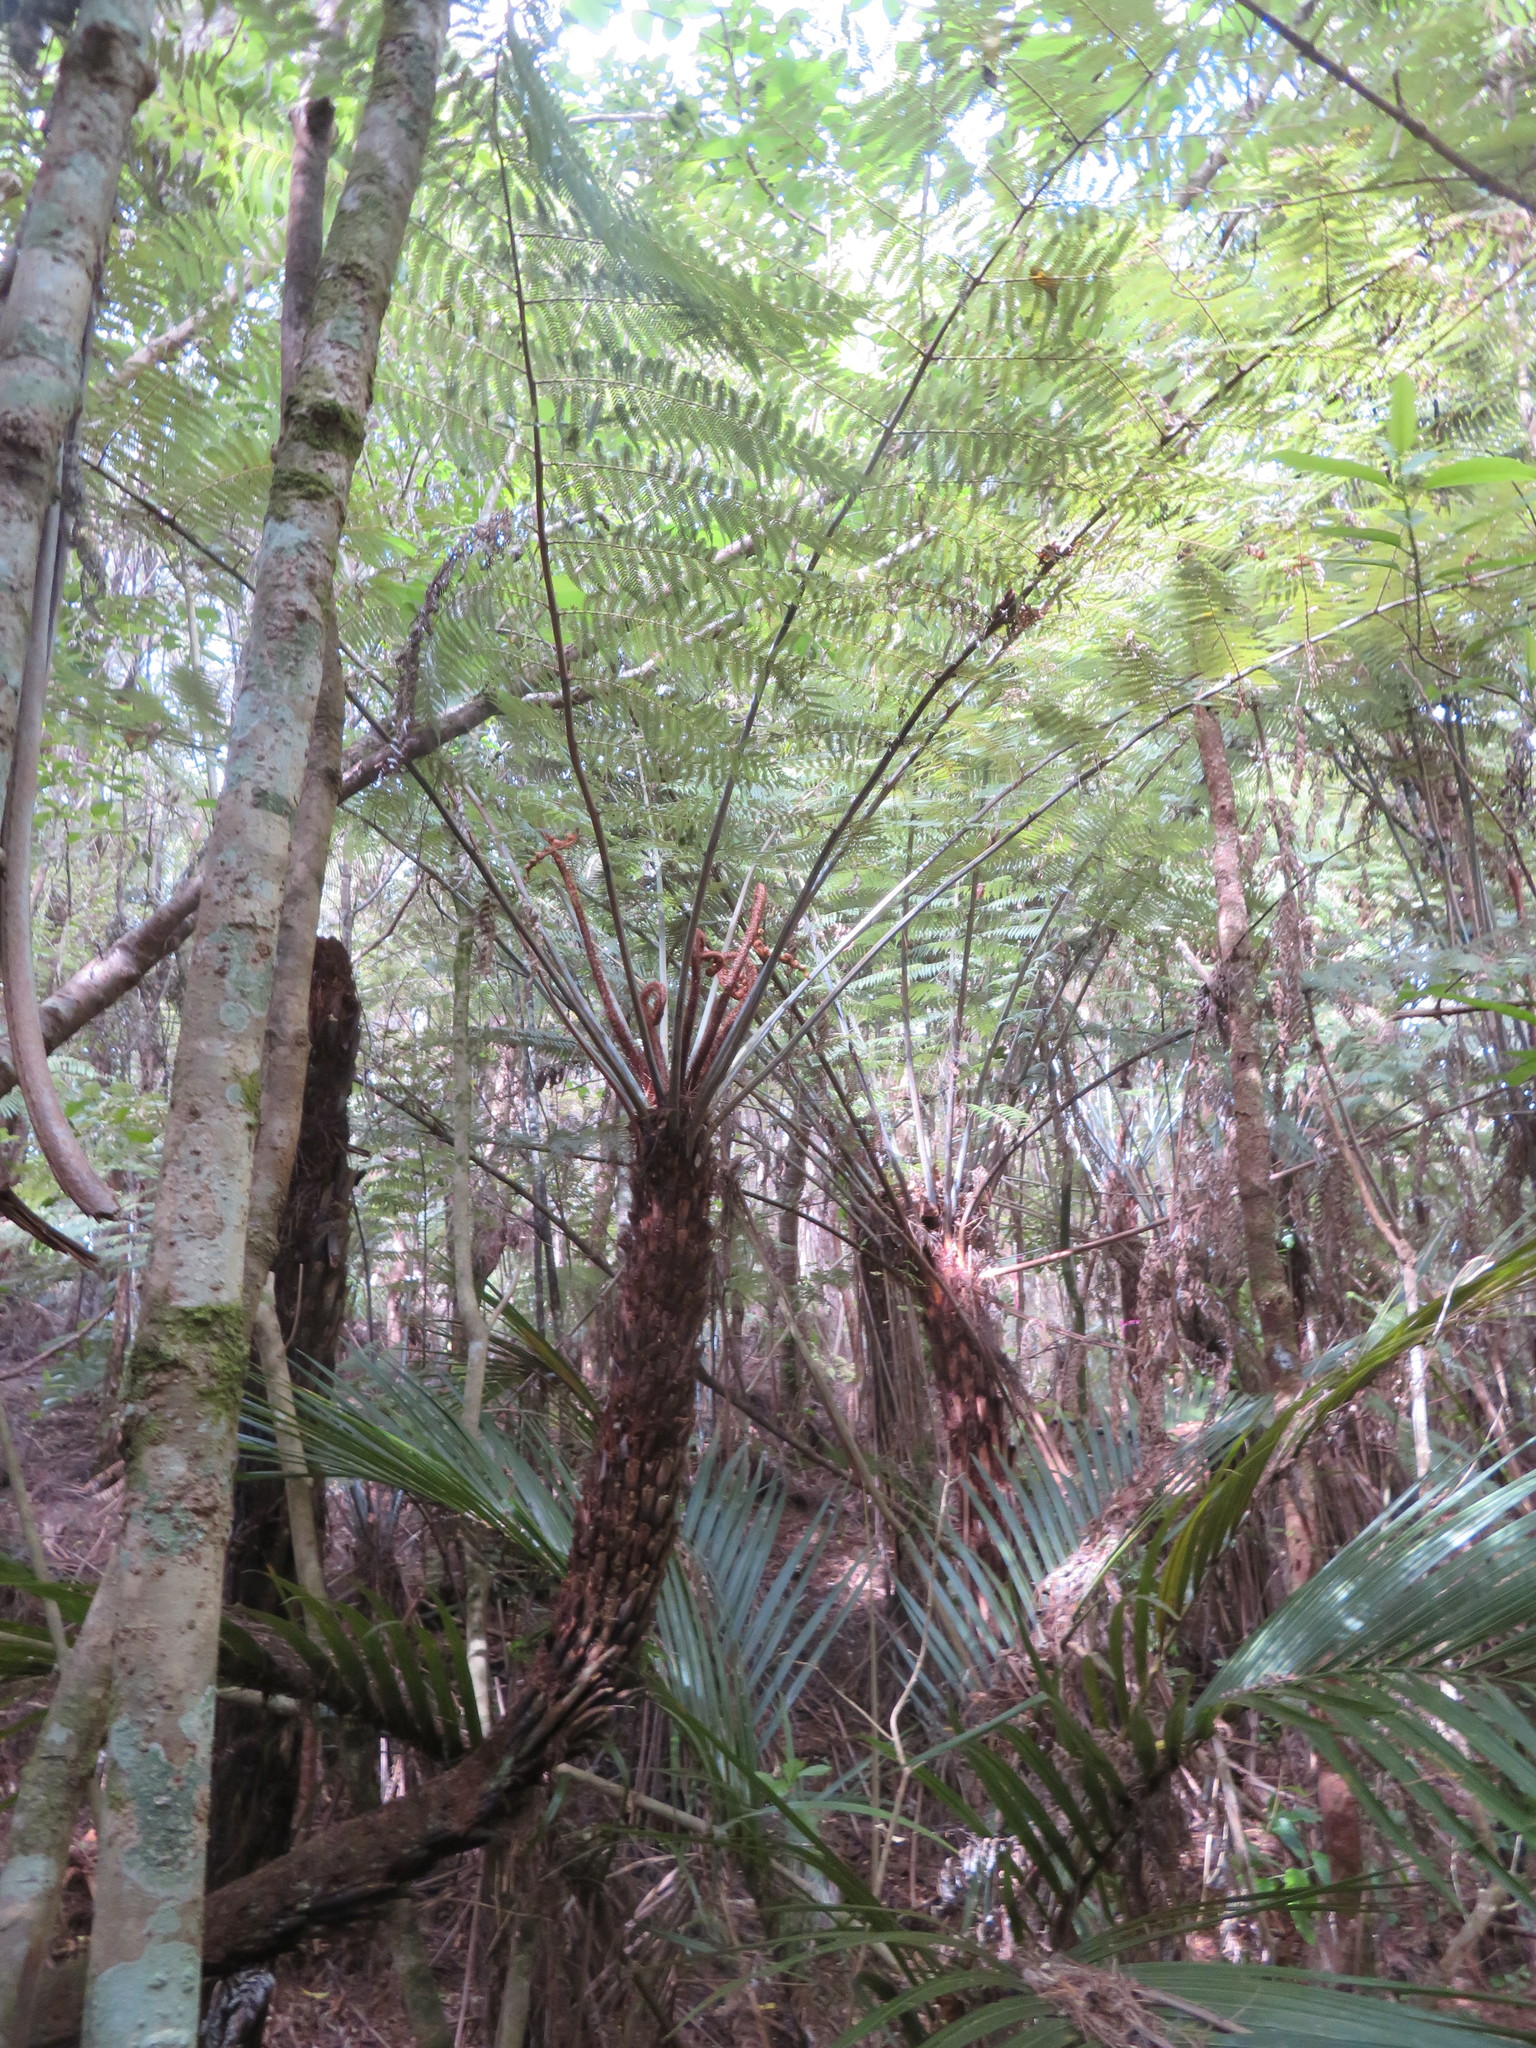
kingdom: Plantae
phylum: Tracheophyta
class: Polypodiopsida
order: Cyatheales
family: Cyatheaceae
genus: Alsophila
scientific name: Alsophila dealbata
